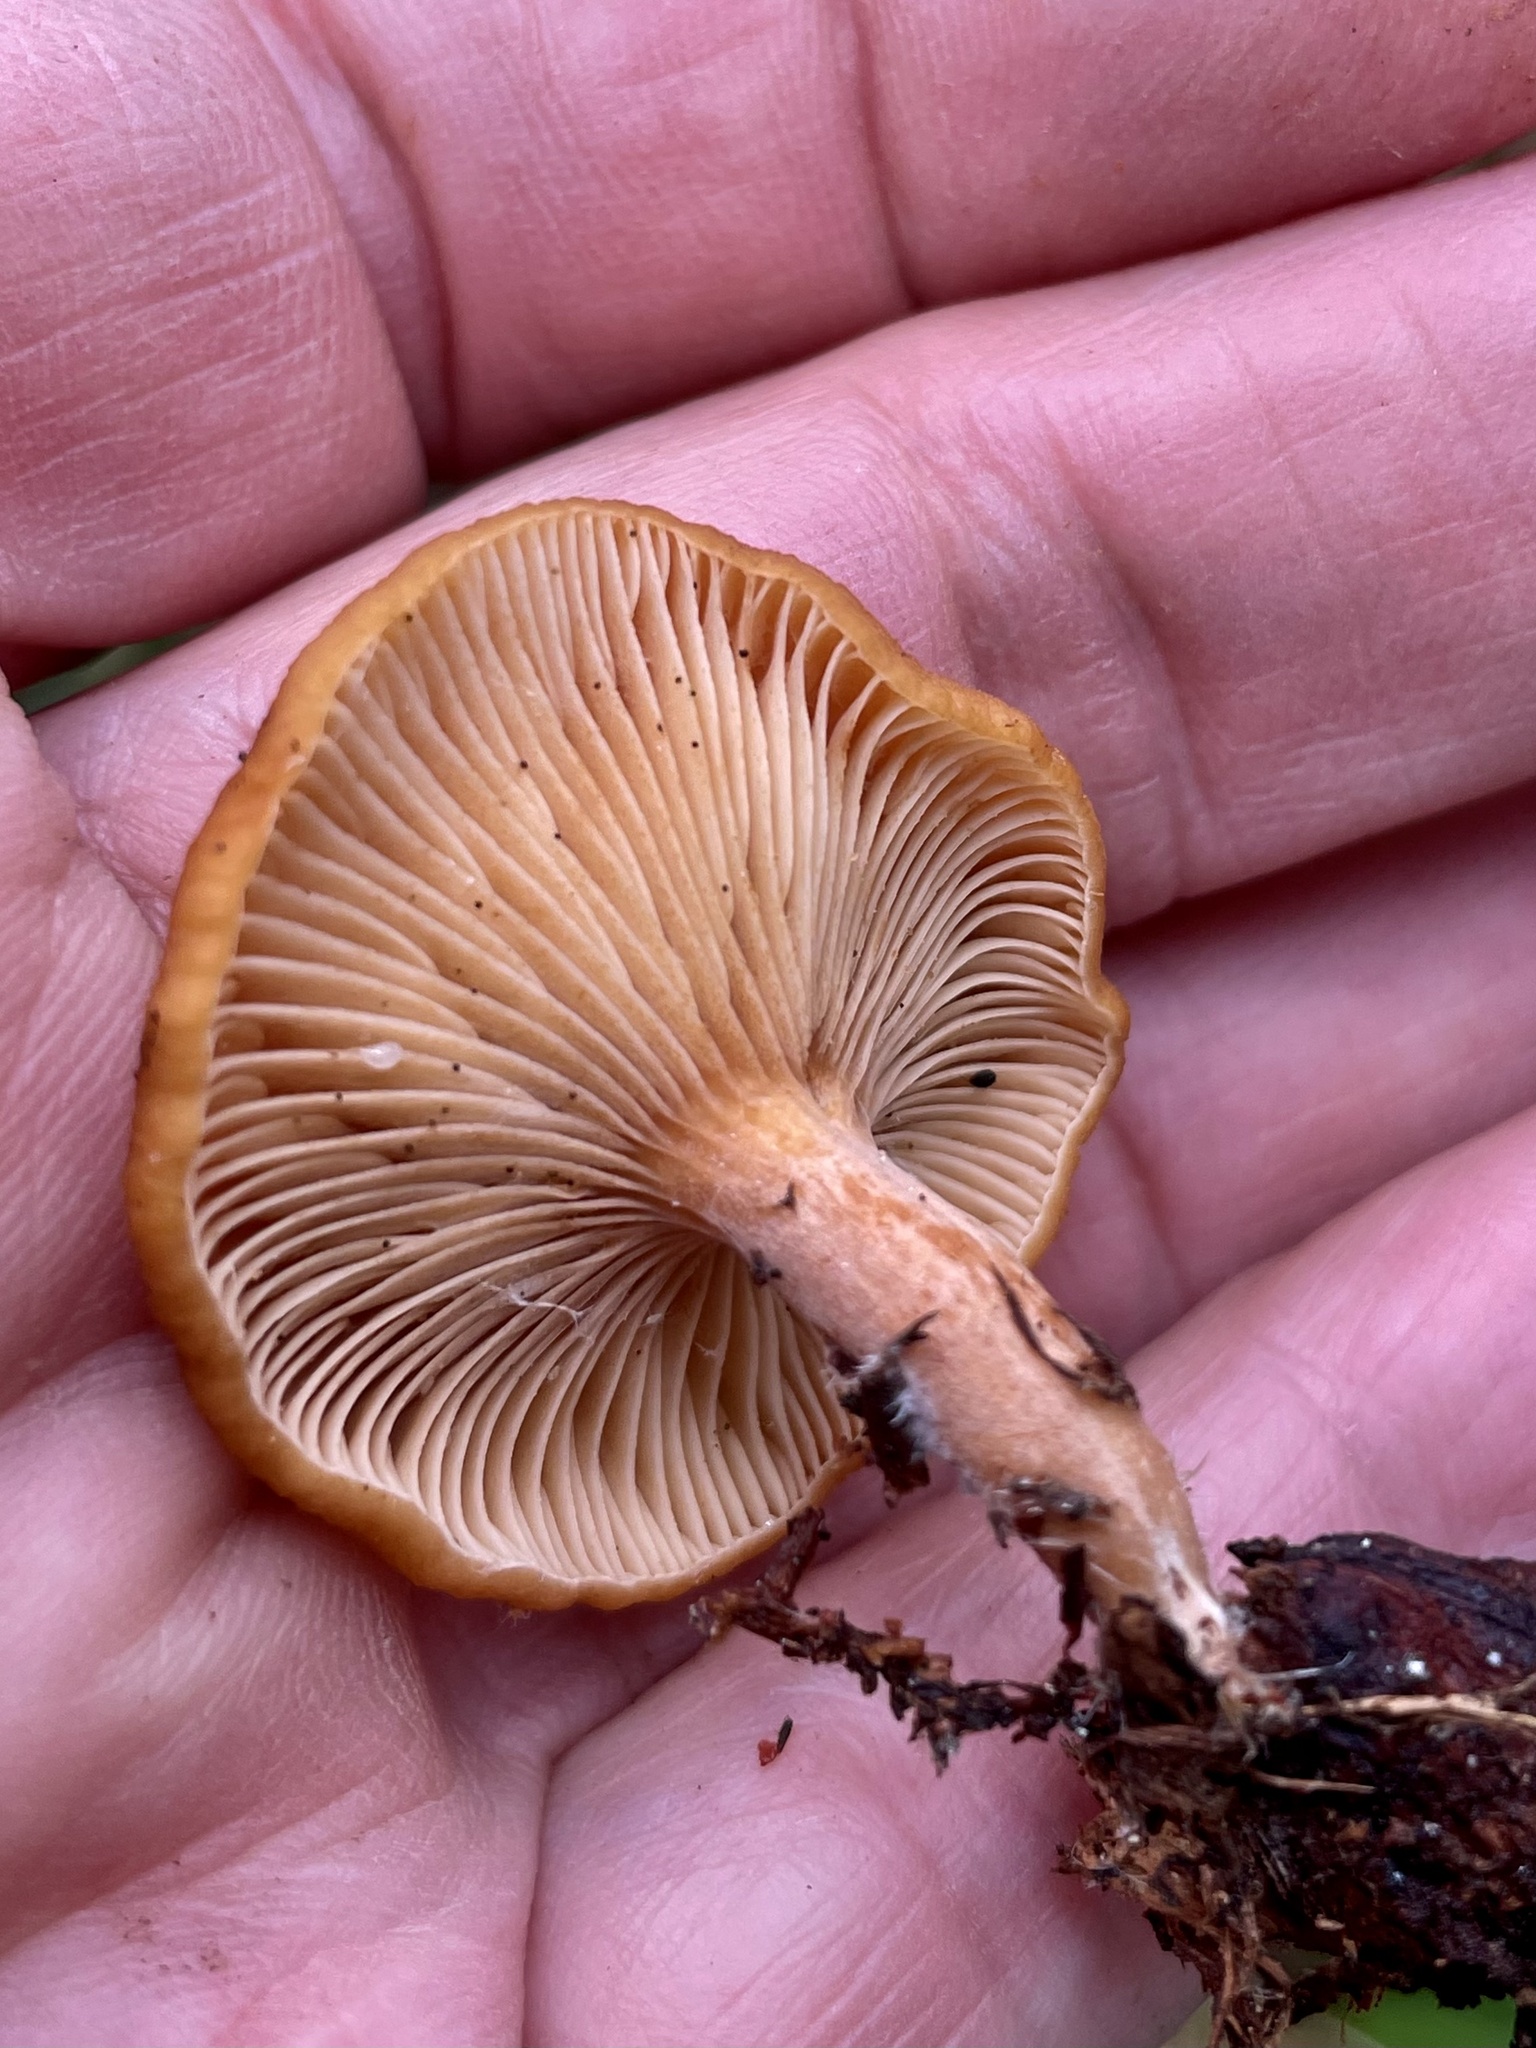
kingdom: Fungi
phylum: Basidiomycota
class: Agaricomycetes
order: Russulales
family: Russulaceae
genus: Lactarius
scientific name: Lactarius rubidus
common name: Candy cap
